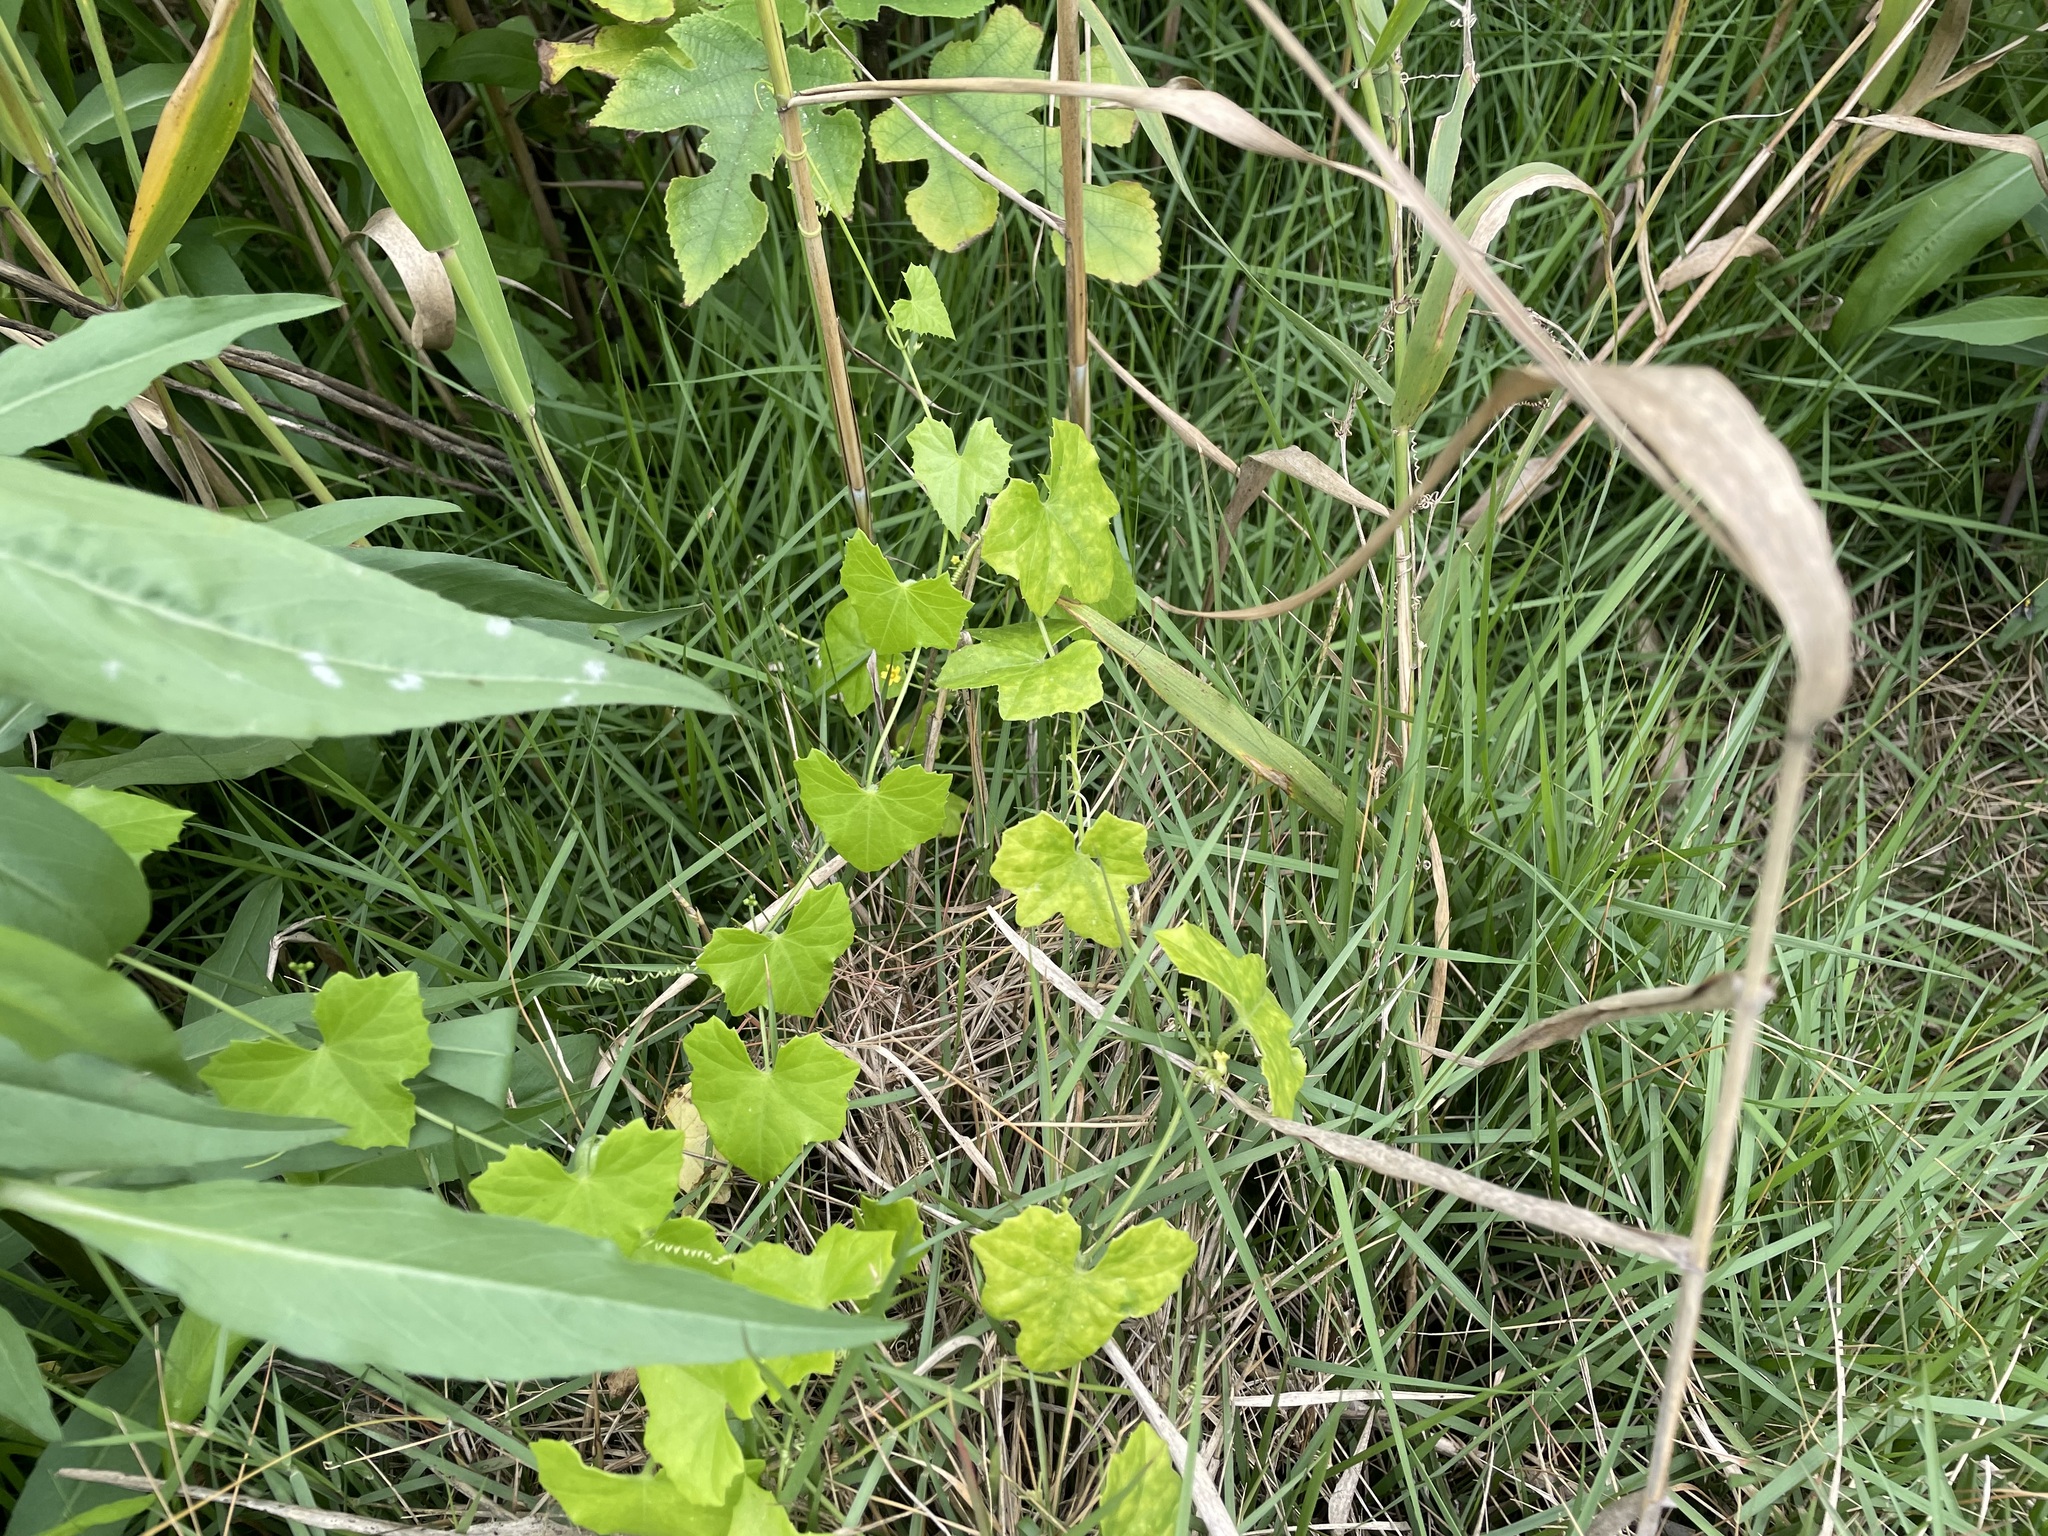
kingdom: Plantae
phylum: Tracheophyta
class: Magnoliopsida
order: Cucurbitales
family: Cucurbitaceae
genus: Melothria
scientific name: Melothria pendula
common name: Creeping-cucumber
